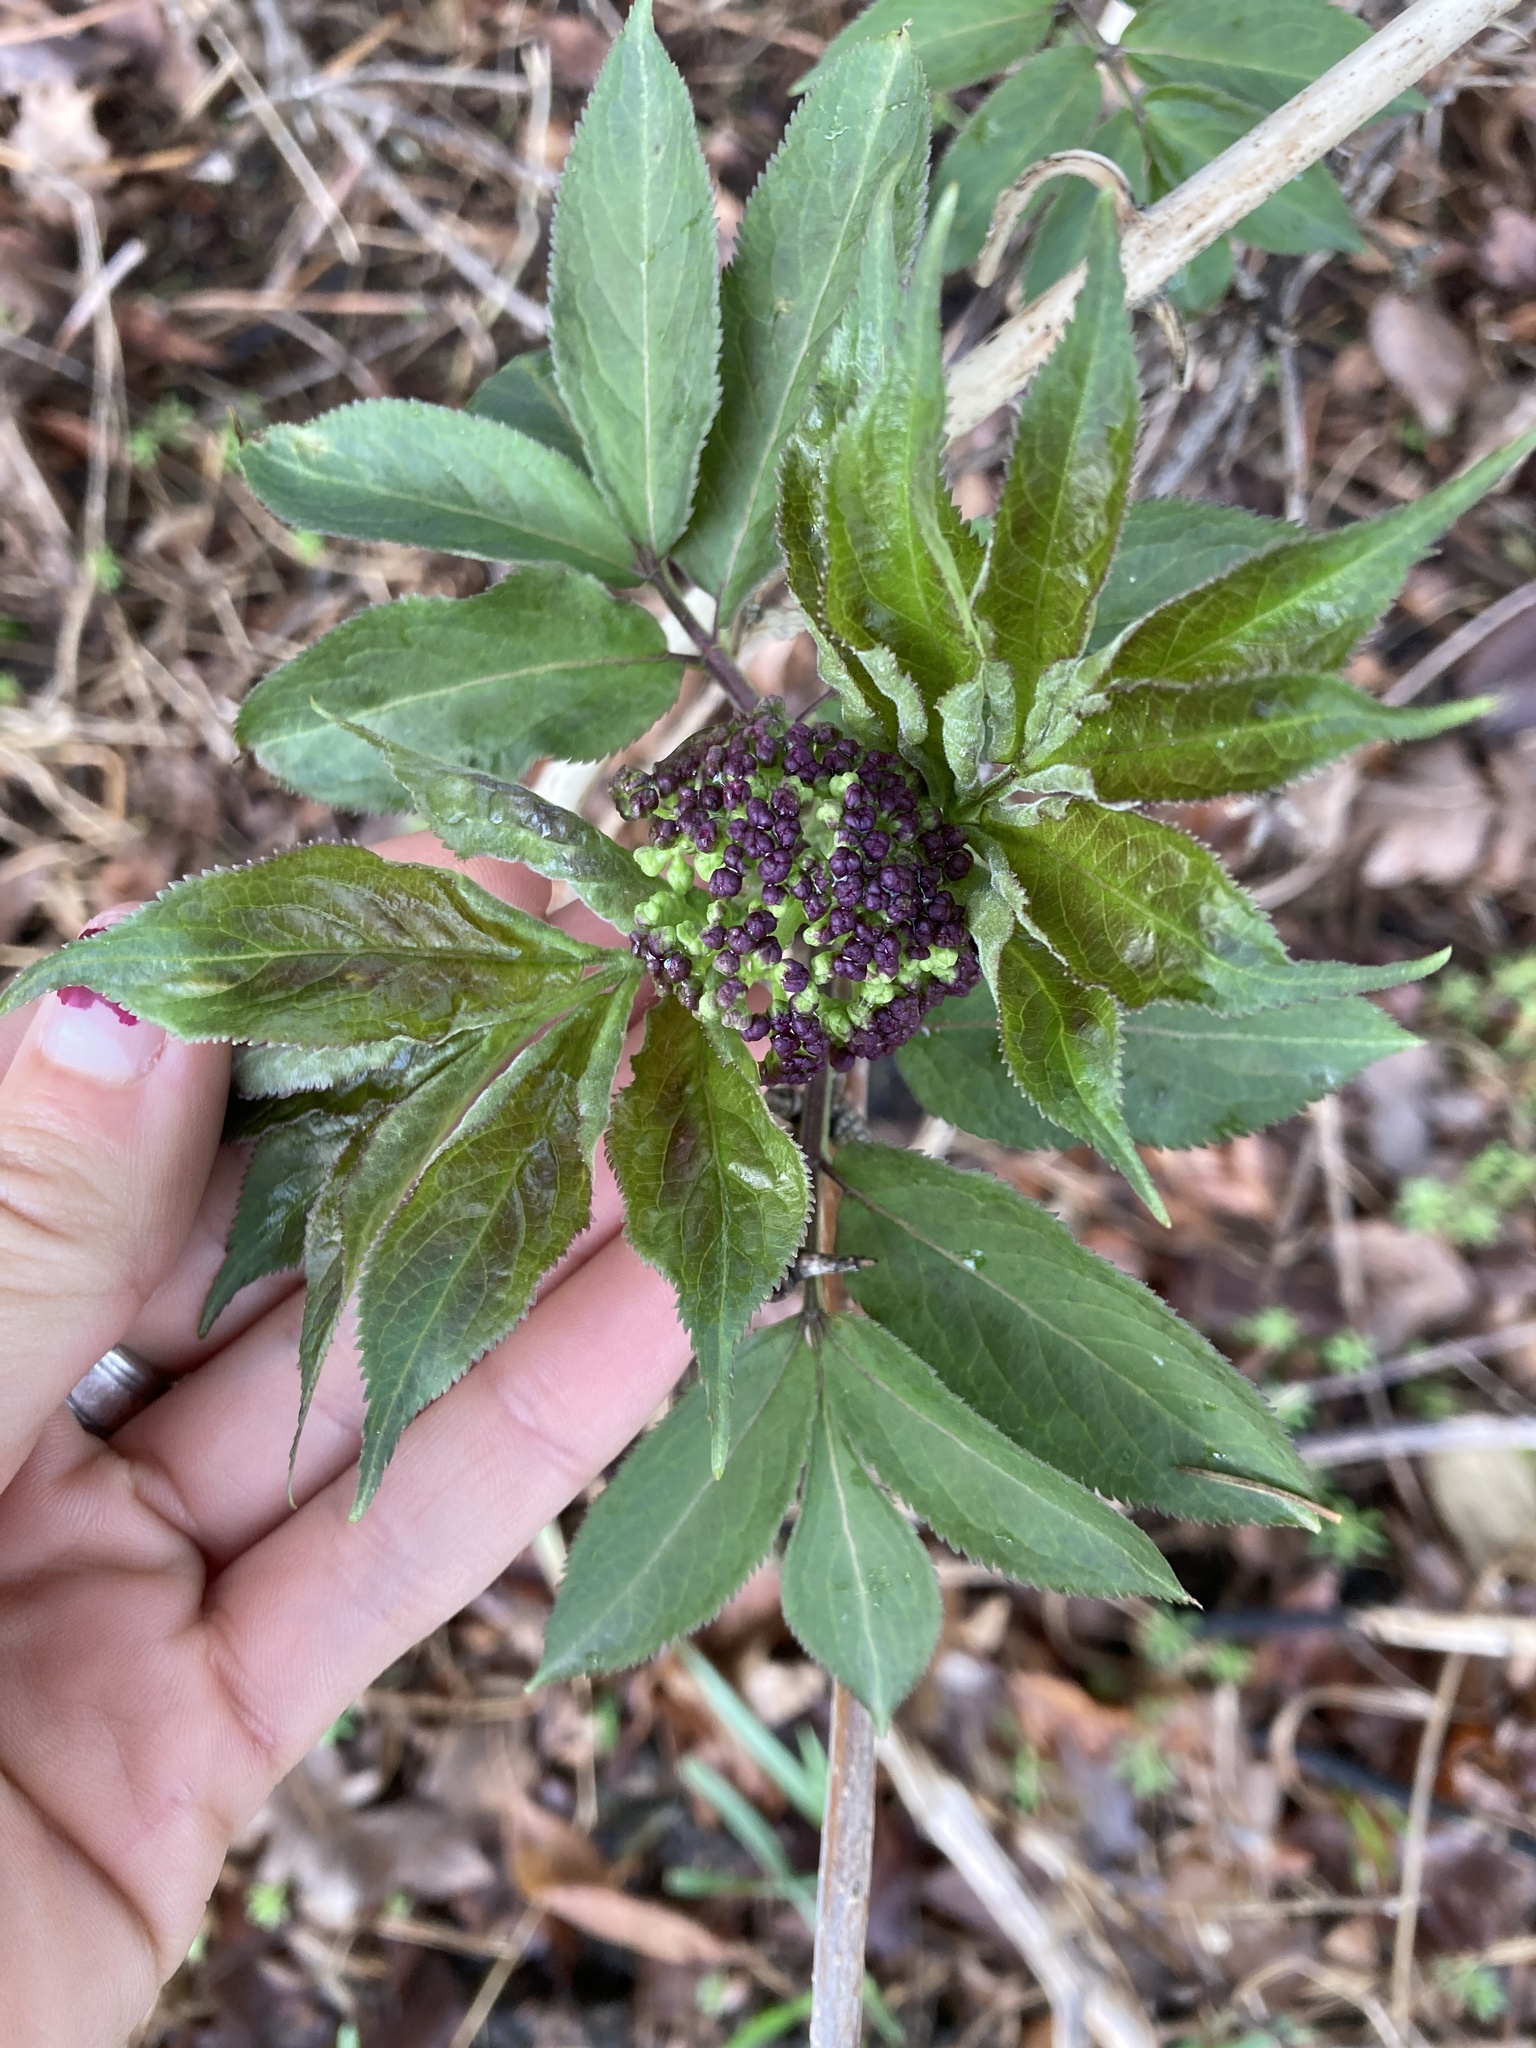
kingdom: Plantae
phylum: Tracheophyta
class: Magnoliopsida
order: Dipsacales
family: Viburnaceae
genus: Sambucus
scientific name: Sambucus racemosa
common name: Red-berried elder
